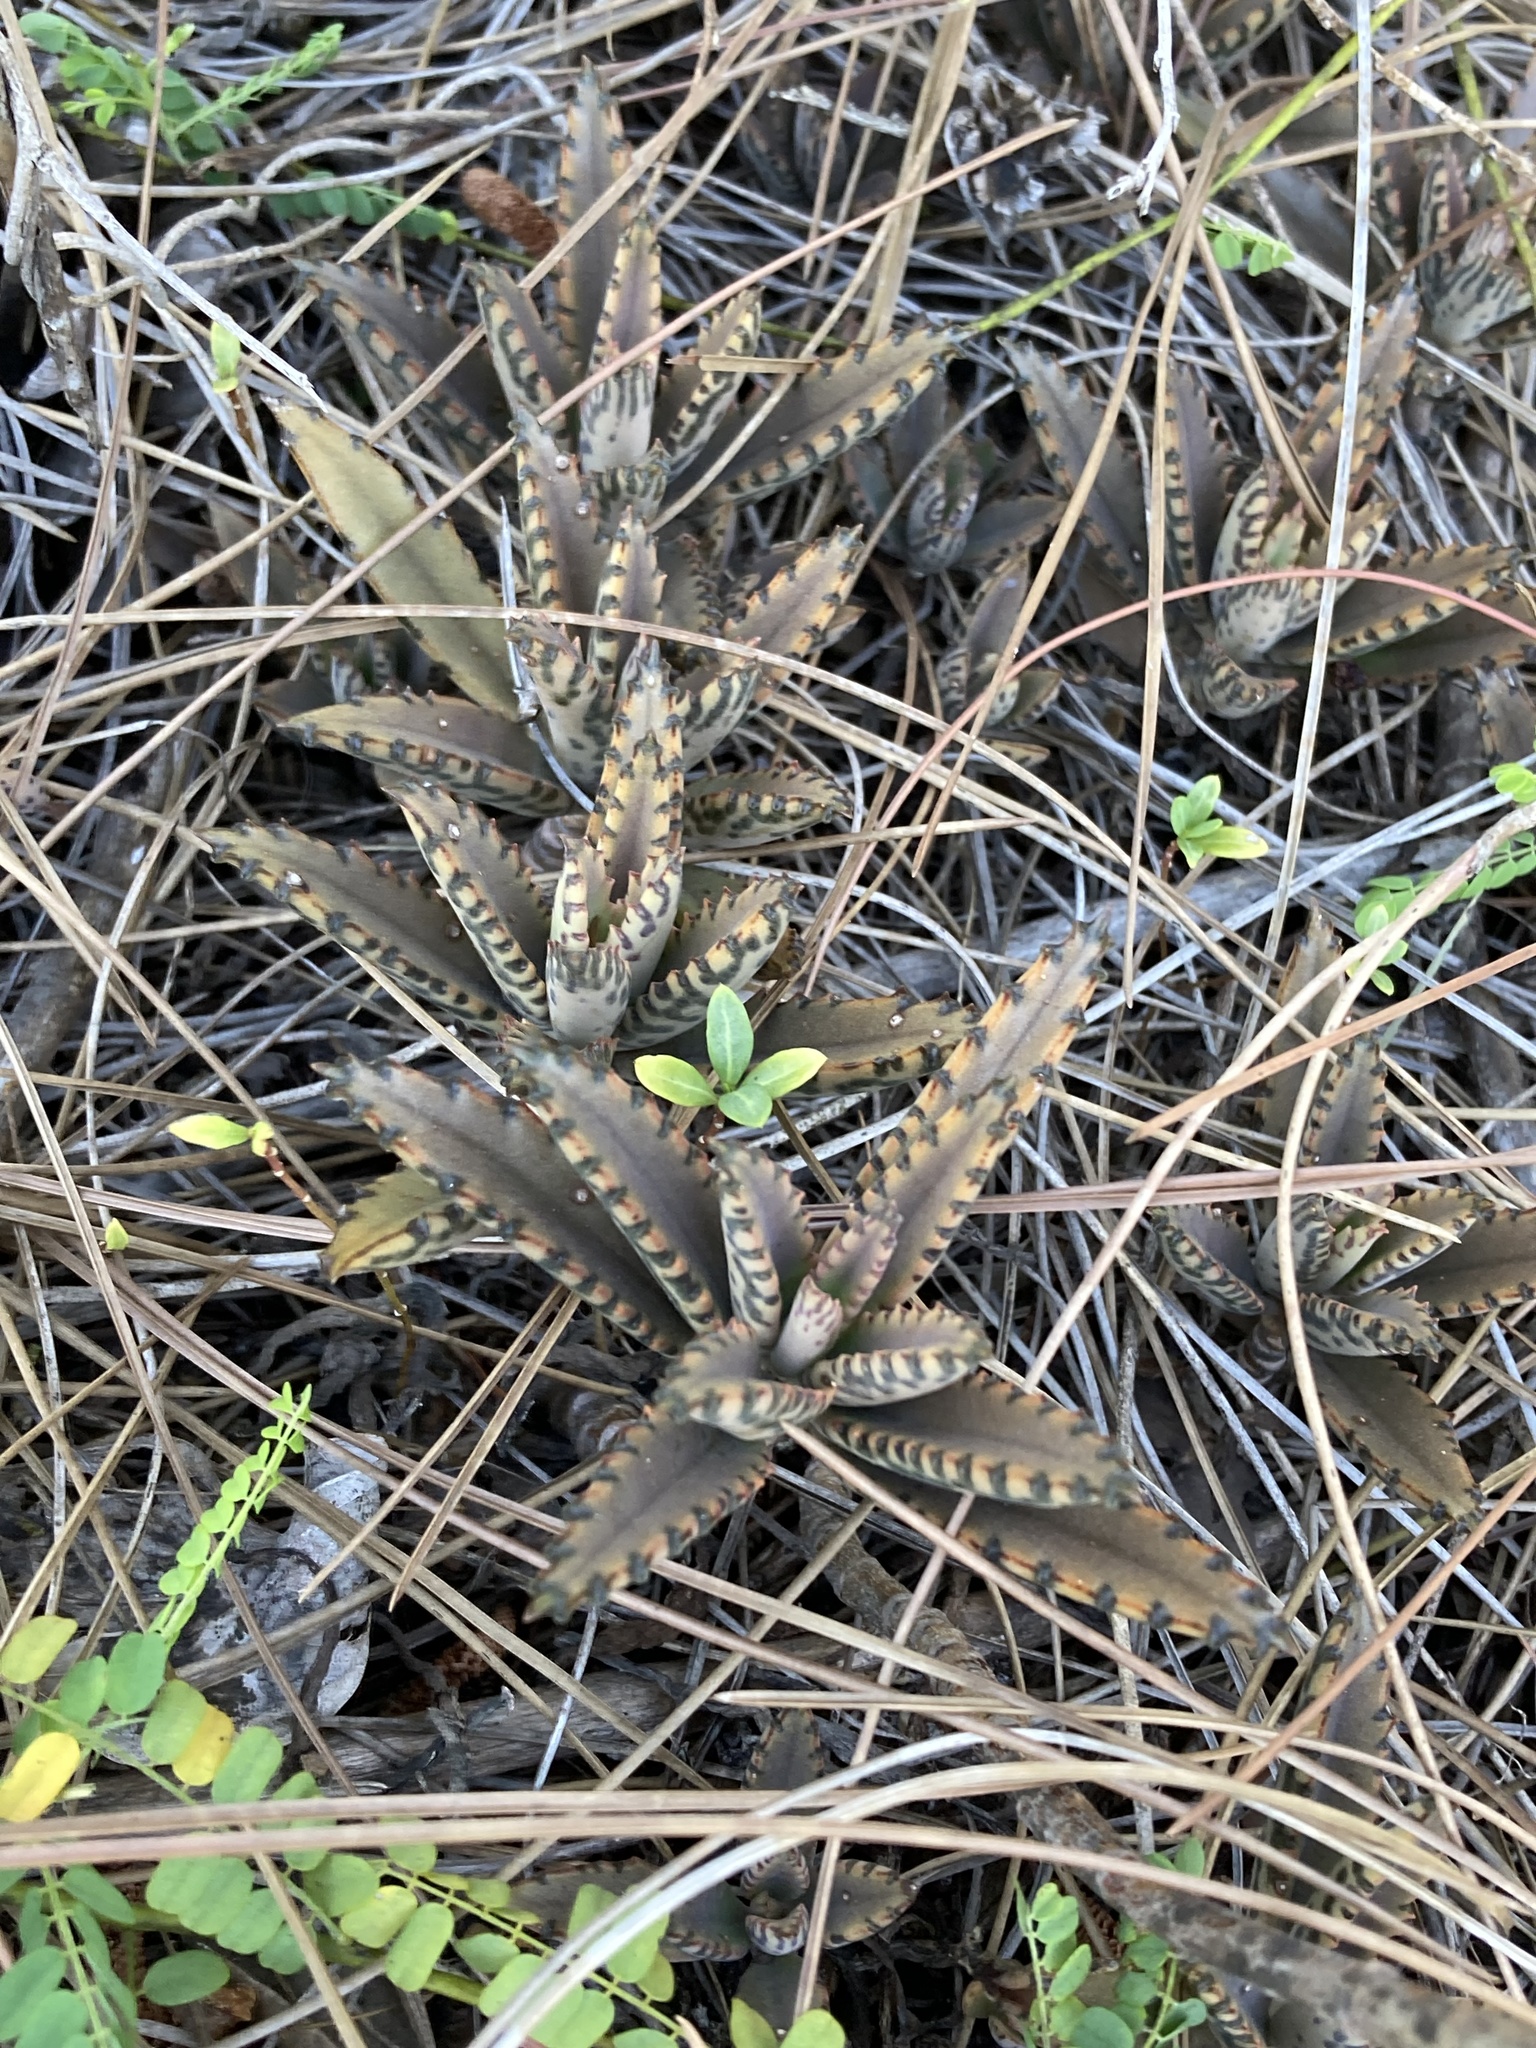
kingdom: Plantae
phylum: Tracheophyta
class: Magnoliopsida
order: Saxifragales
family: Crassulaceae
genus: Kalanchoe
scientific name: Kalanchoe houghtonii
